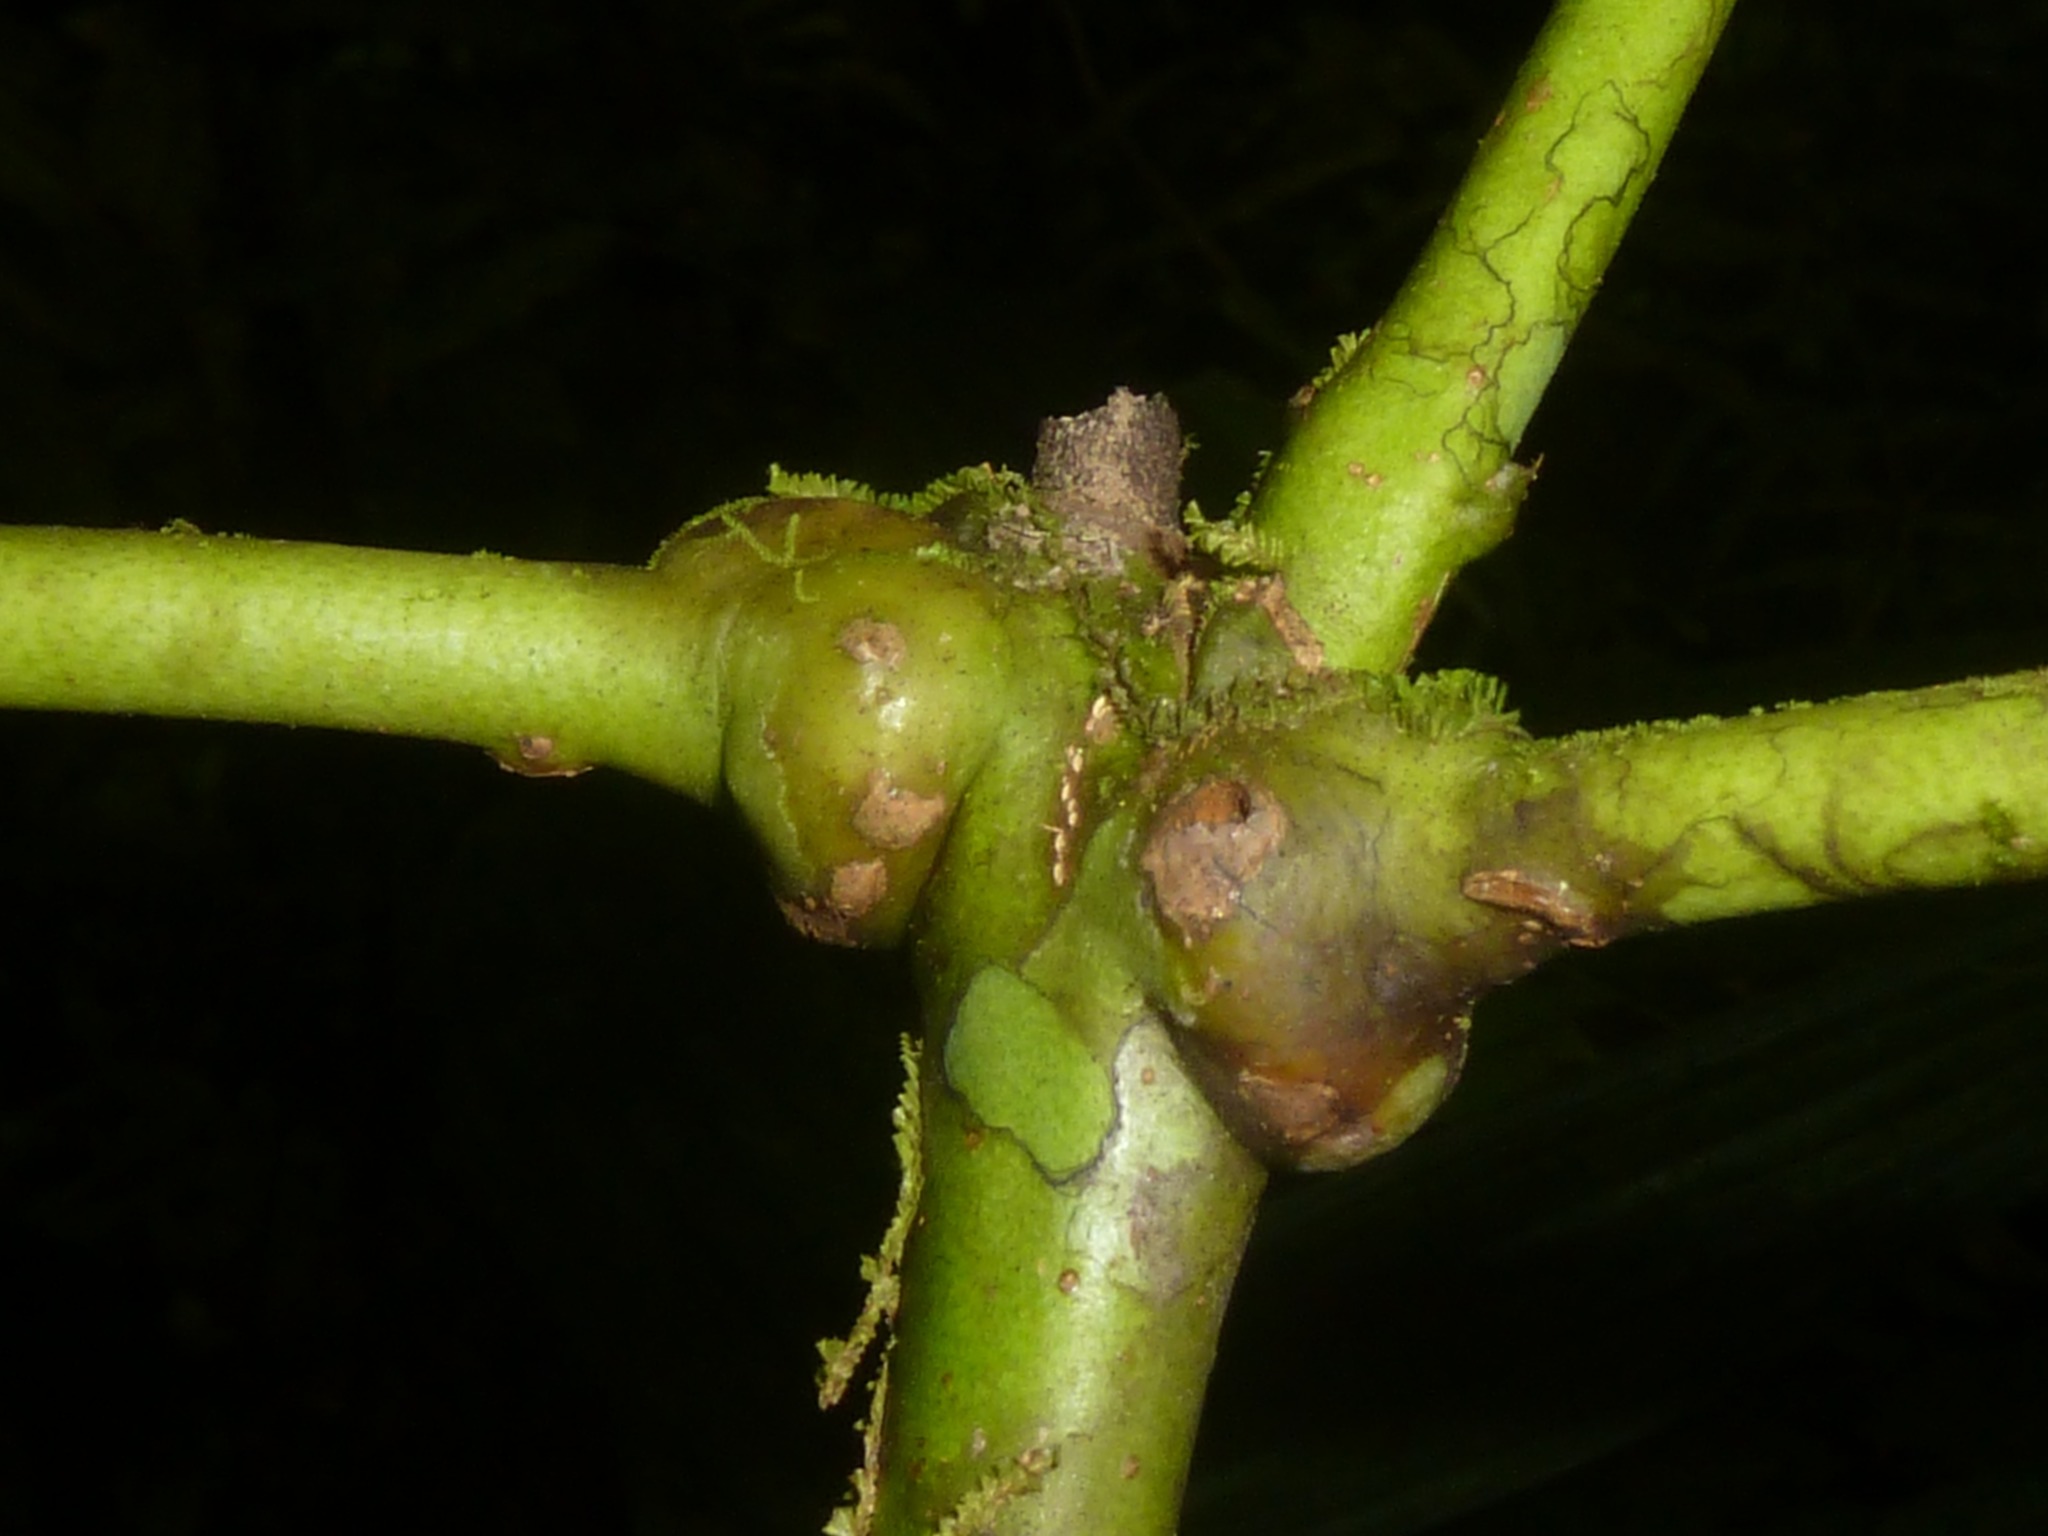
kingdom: Plantae
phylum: Tracheophyta
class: Magnoliopsida
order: Sapindales
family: Rutaceae
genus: Amyris
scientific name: Amyris magnifolia
